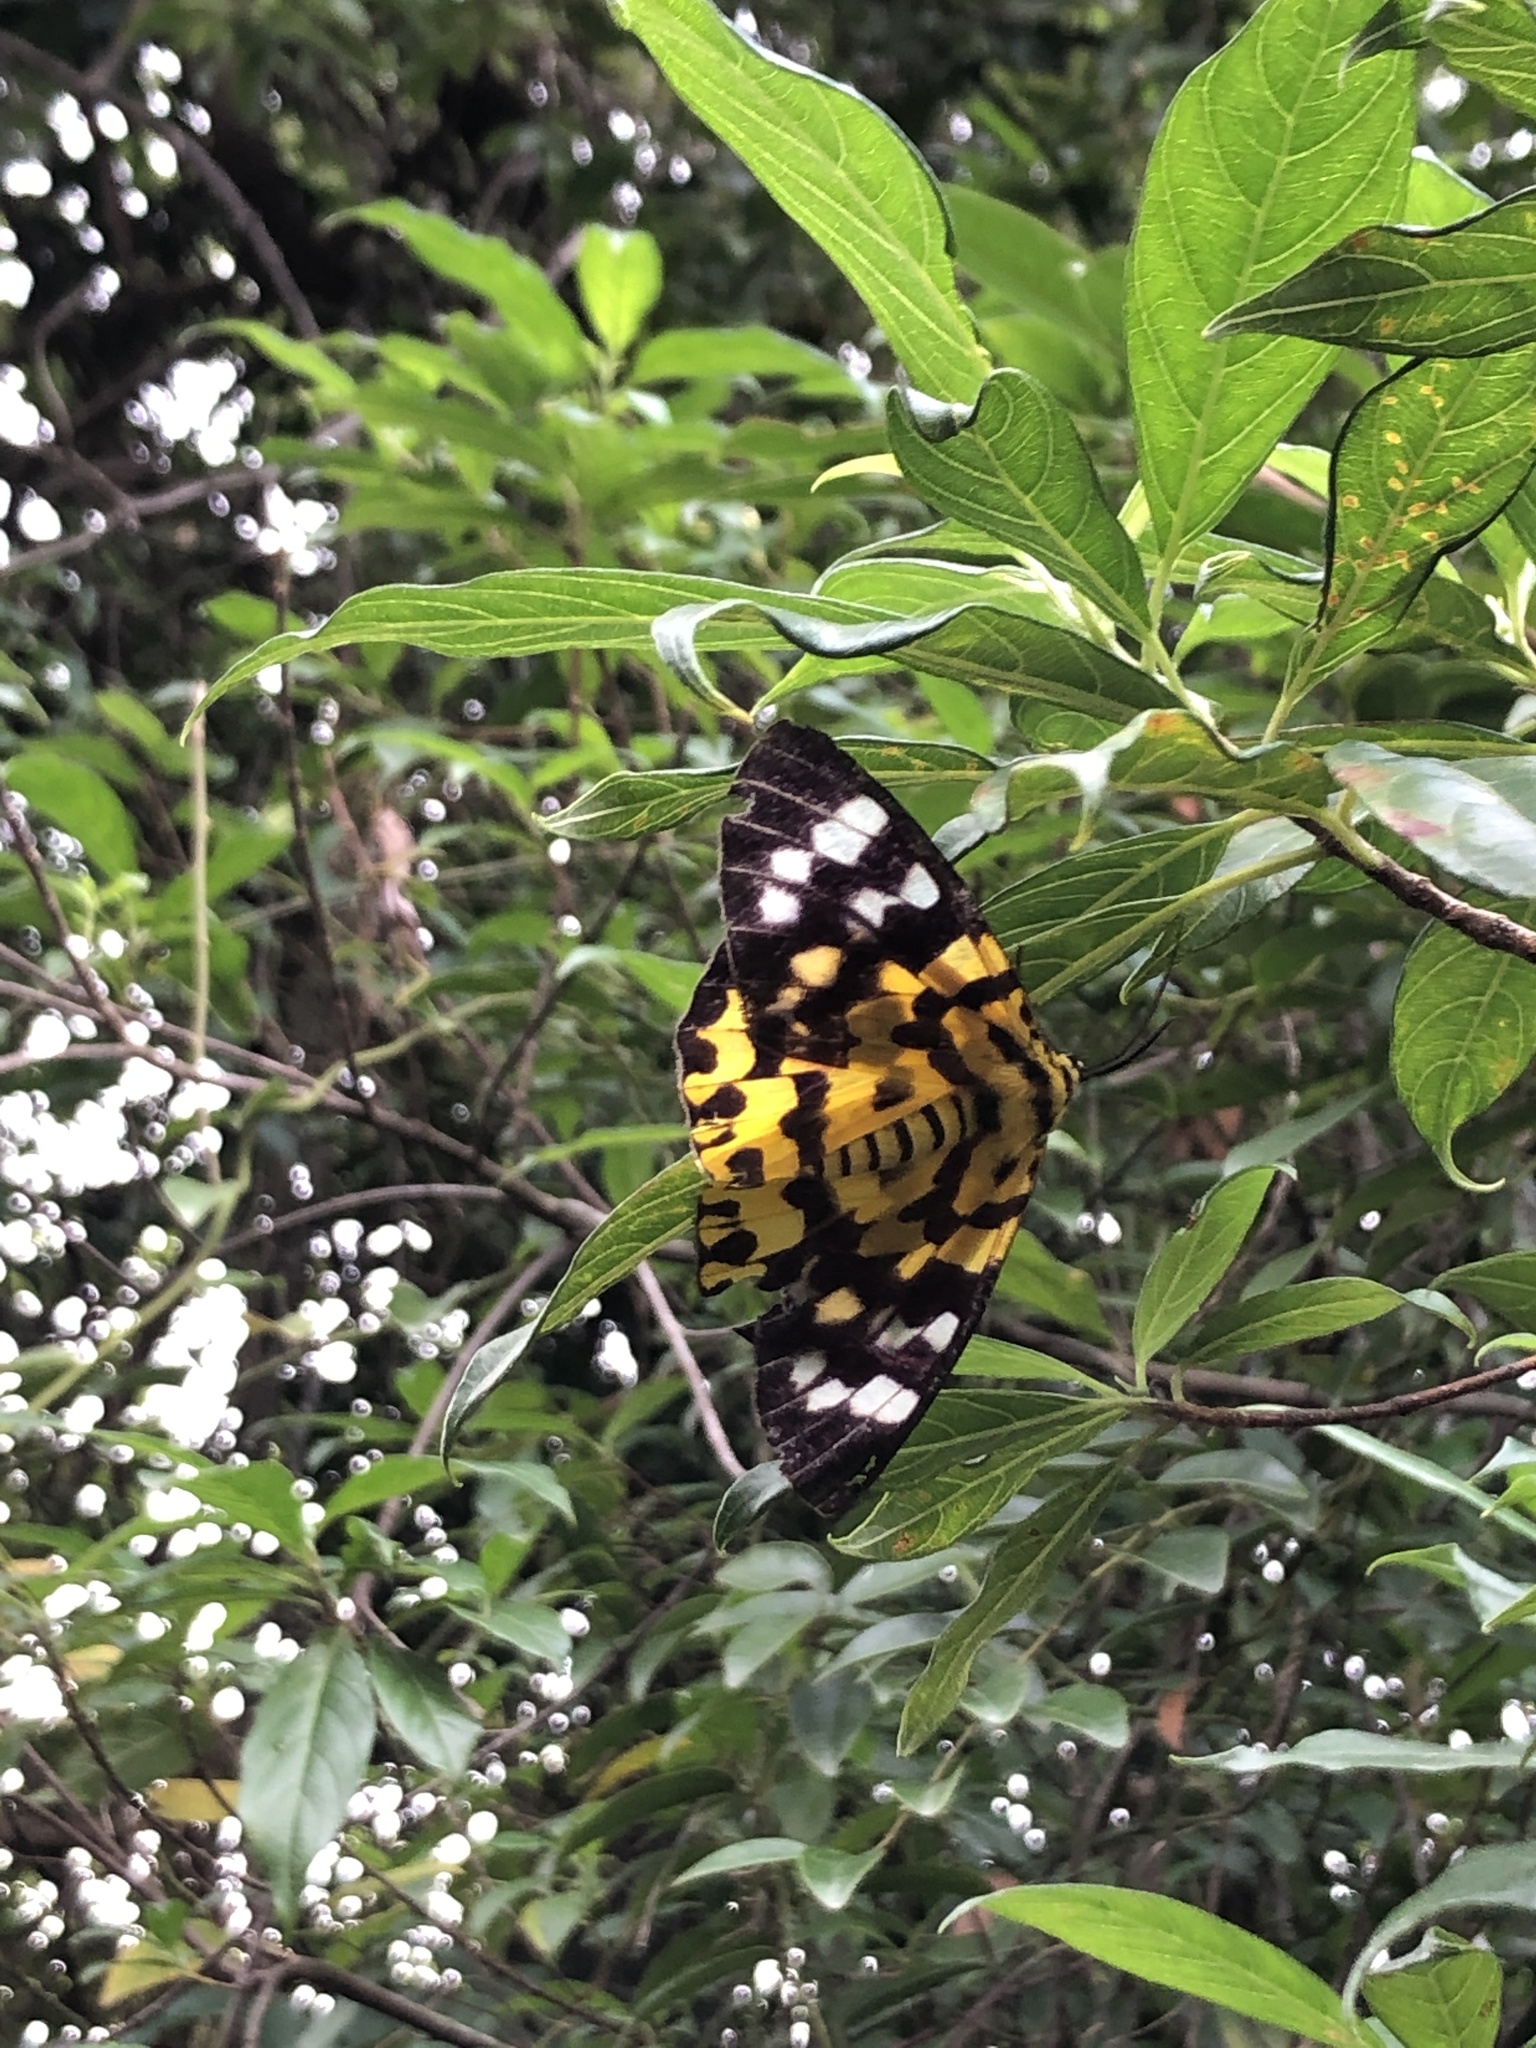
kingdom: Animalia
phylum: Arthropoda
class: Insecta
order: Lepidoptera
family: Geometridae
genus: Dysphania
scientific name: Dysphania militaris
